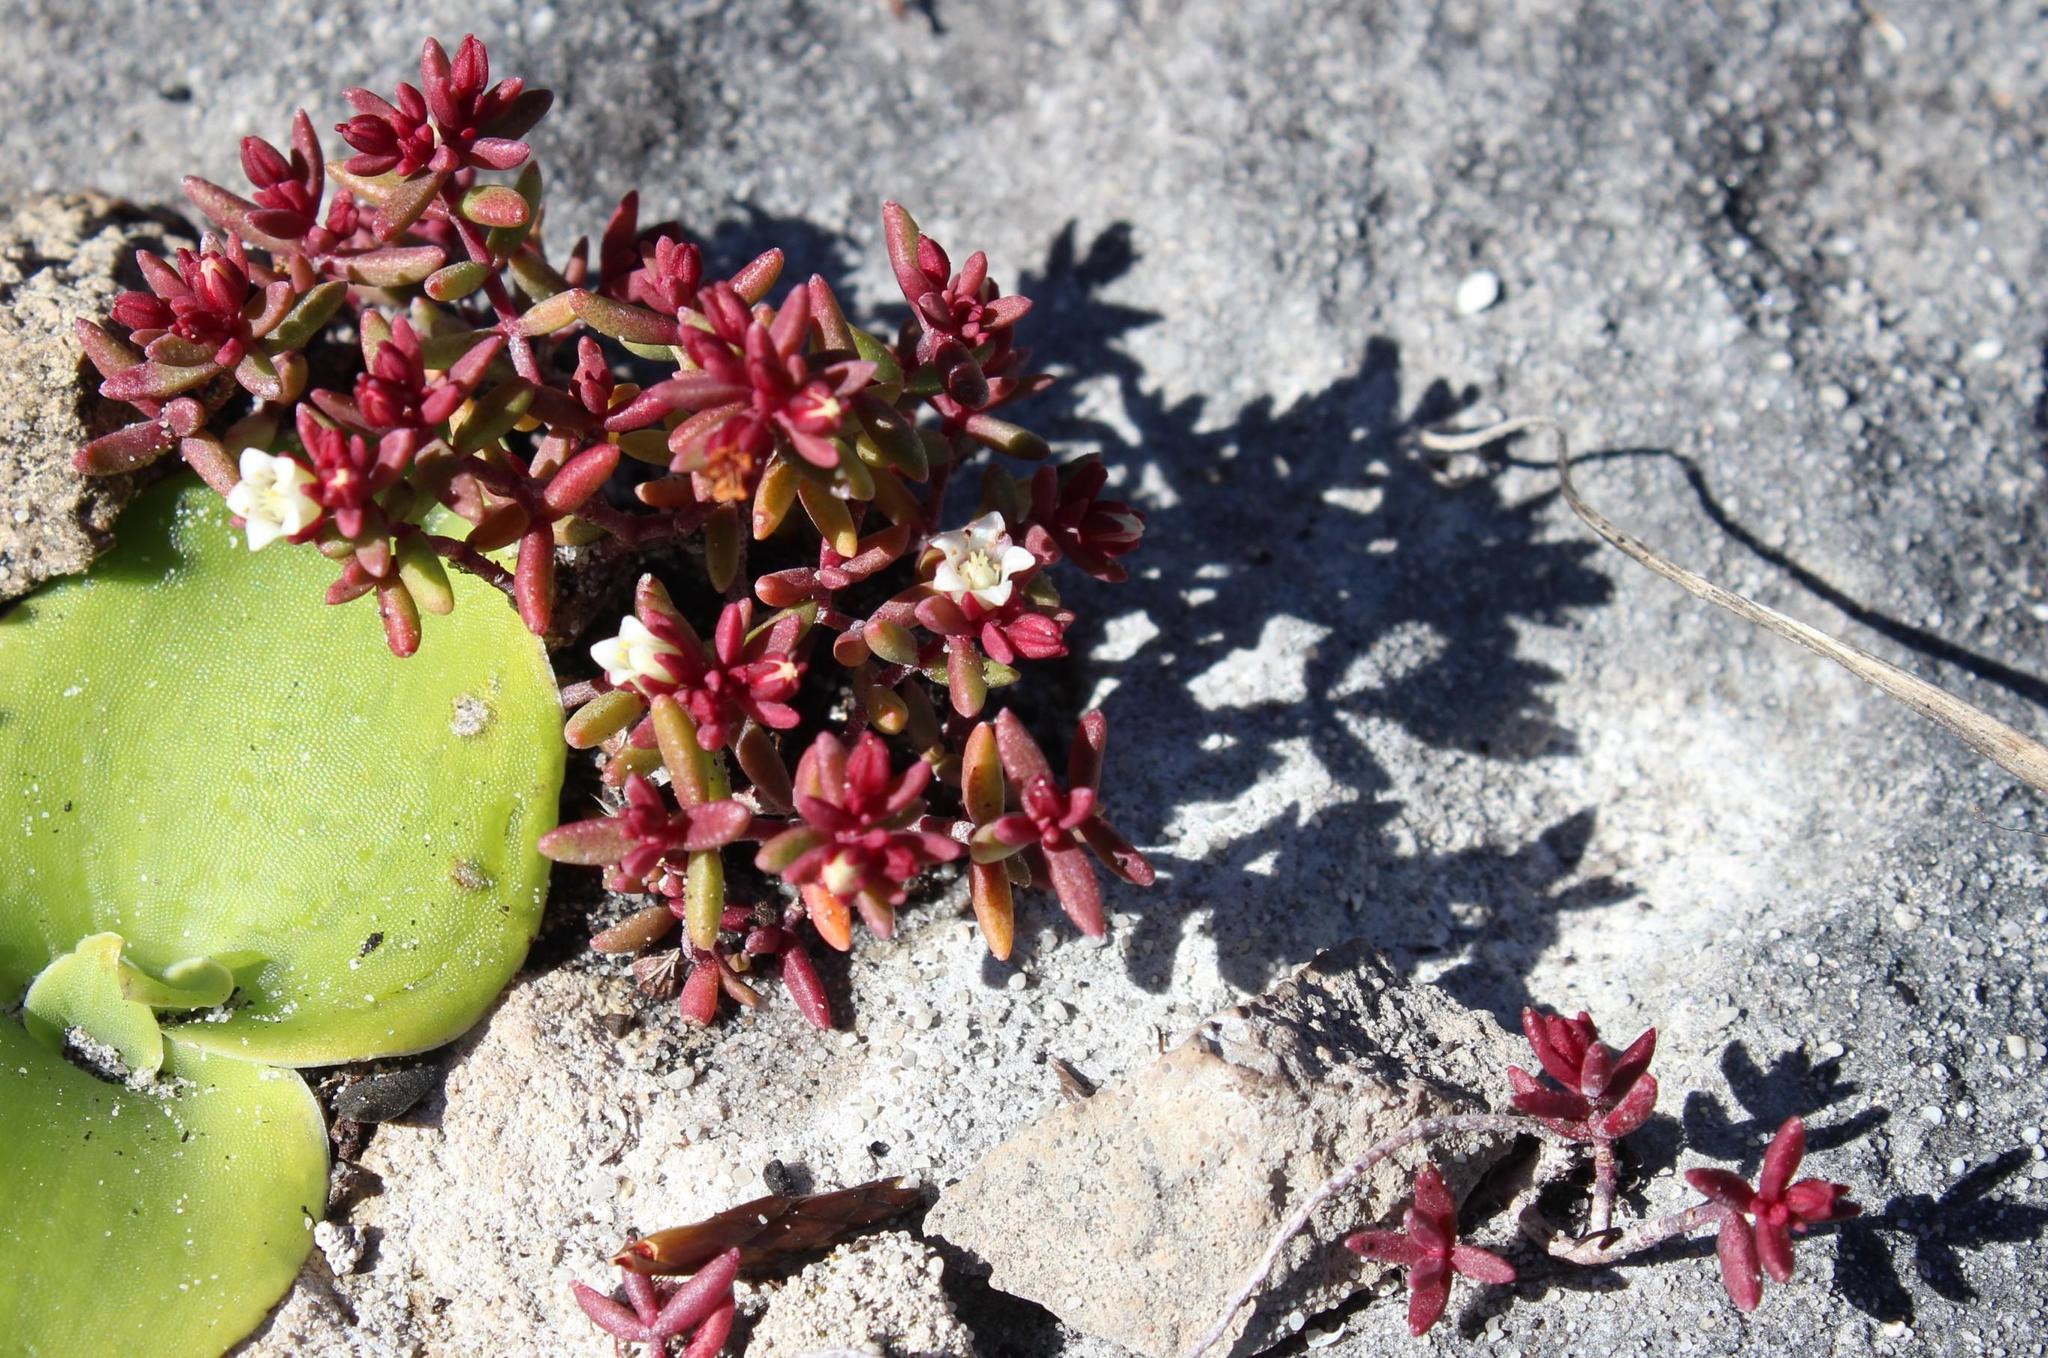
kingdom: Plantae
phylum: Tracheophyta
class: Magnoliopsida
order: Saxifragales
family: Crassulaceae
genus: Crassula
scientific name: Crassula expansa
